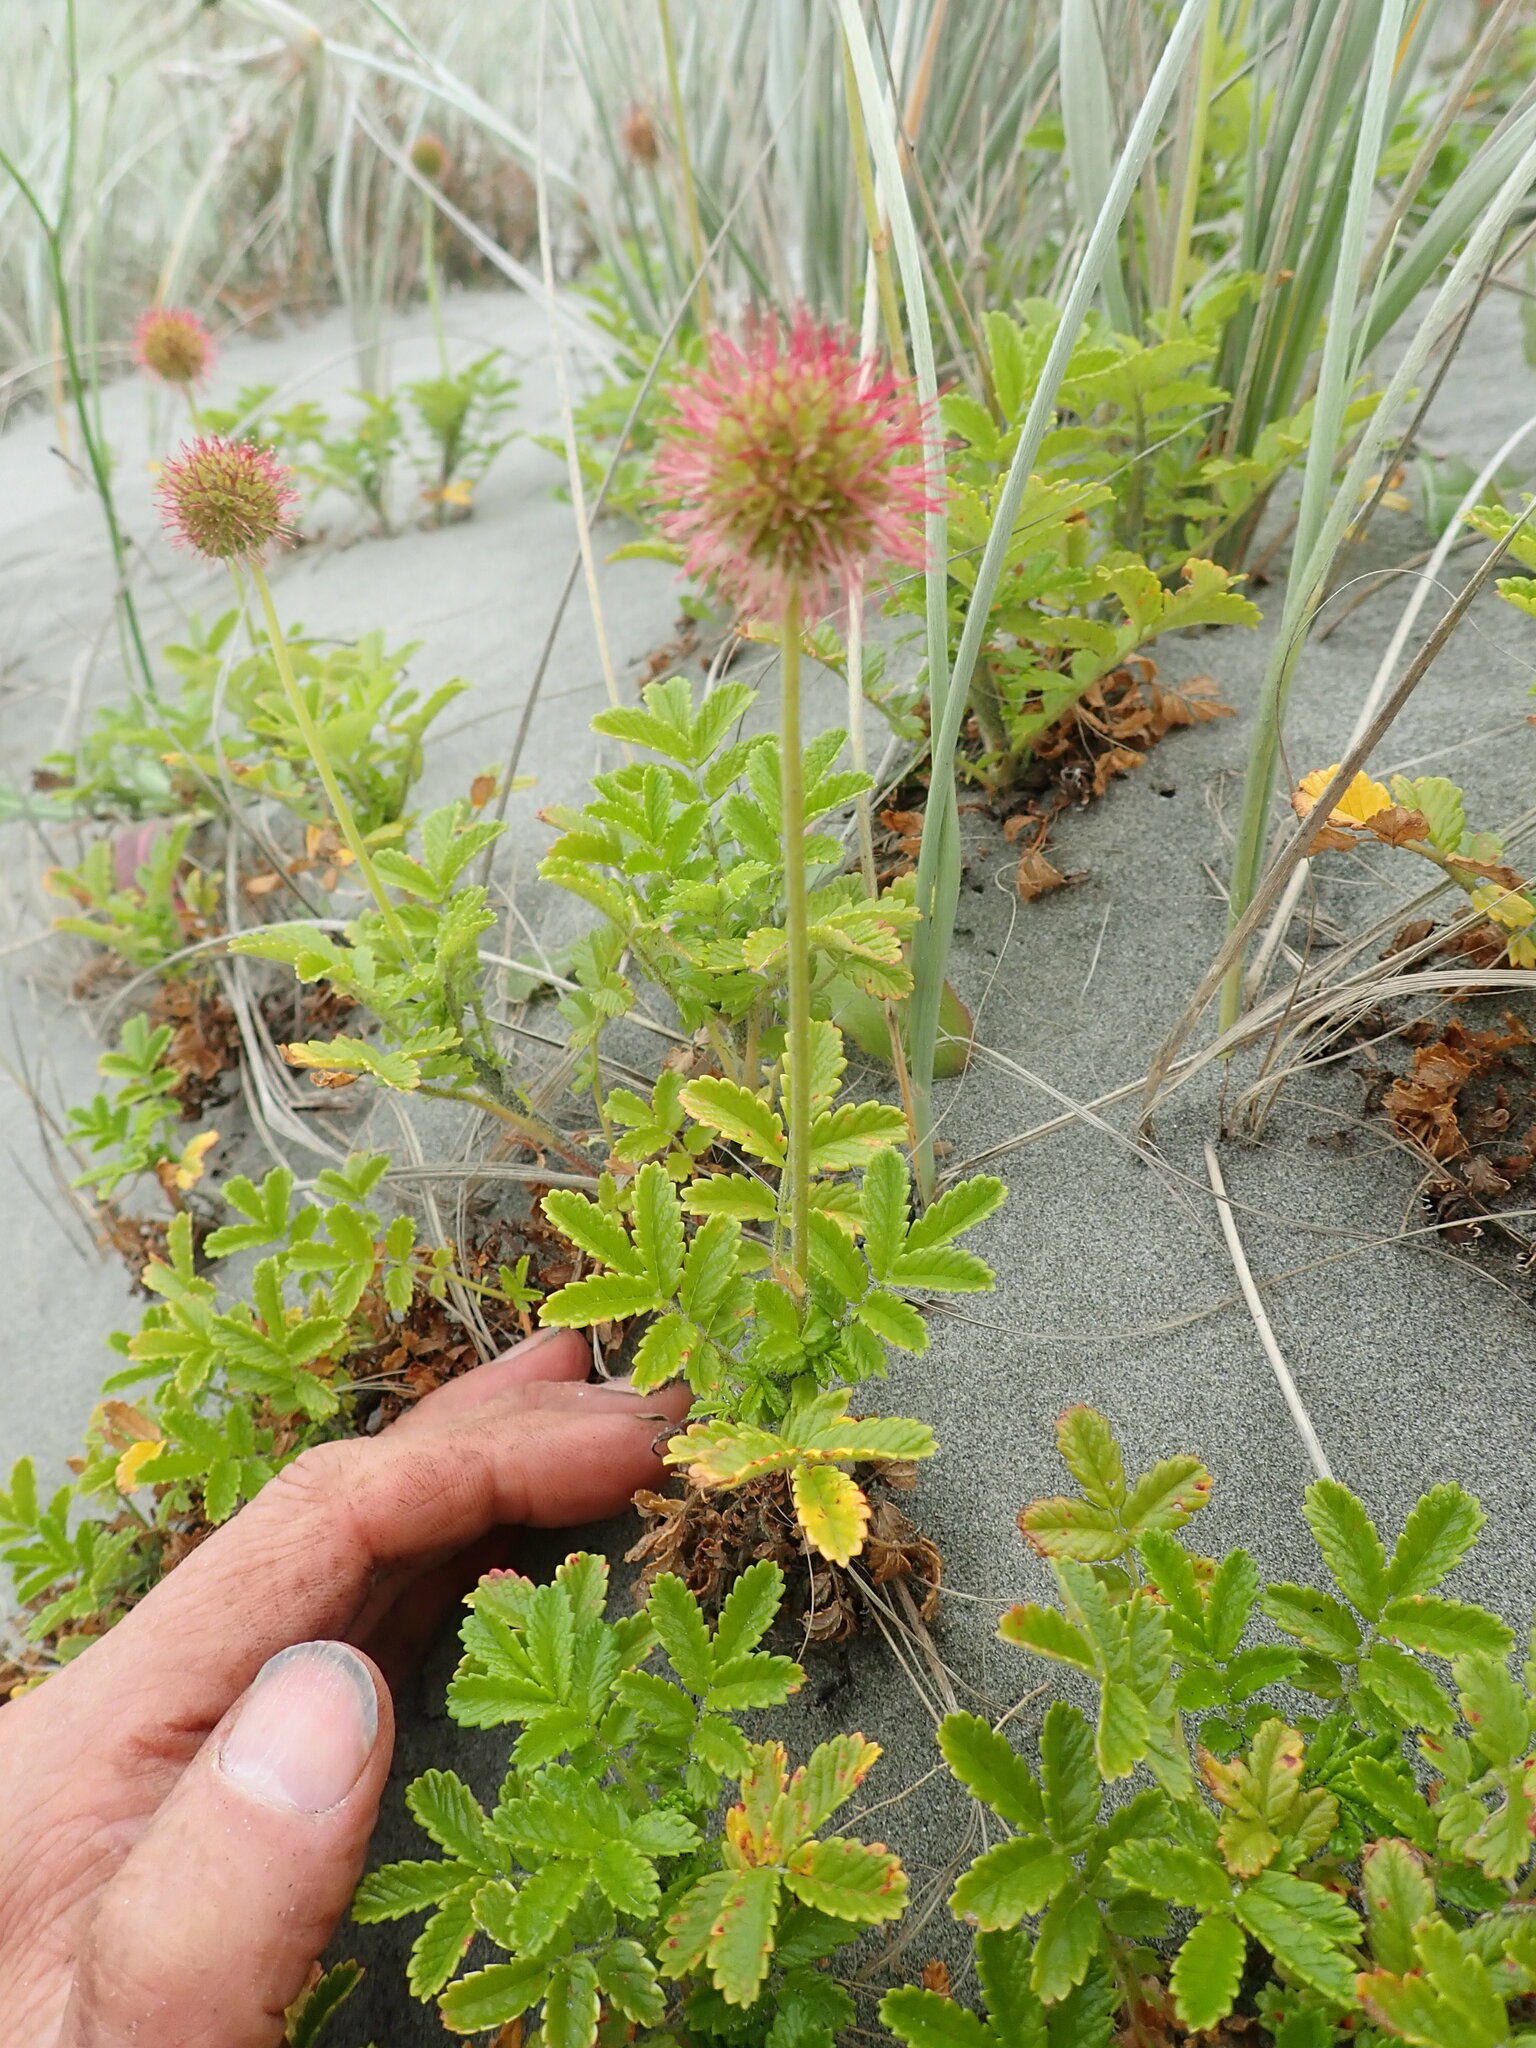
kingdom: Plantae
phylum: Tracheophyta
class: Magnoliopsida
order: Rosales
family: Rosaceae
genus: Acaena
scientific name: Acaena novae-zelandiae
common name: Pirri-pirri-bur
